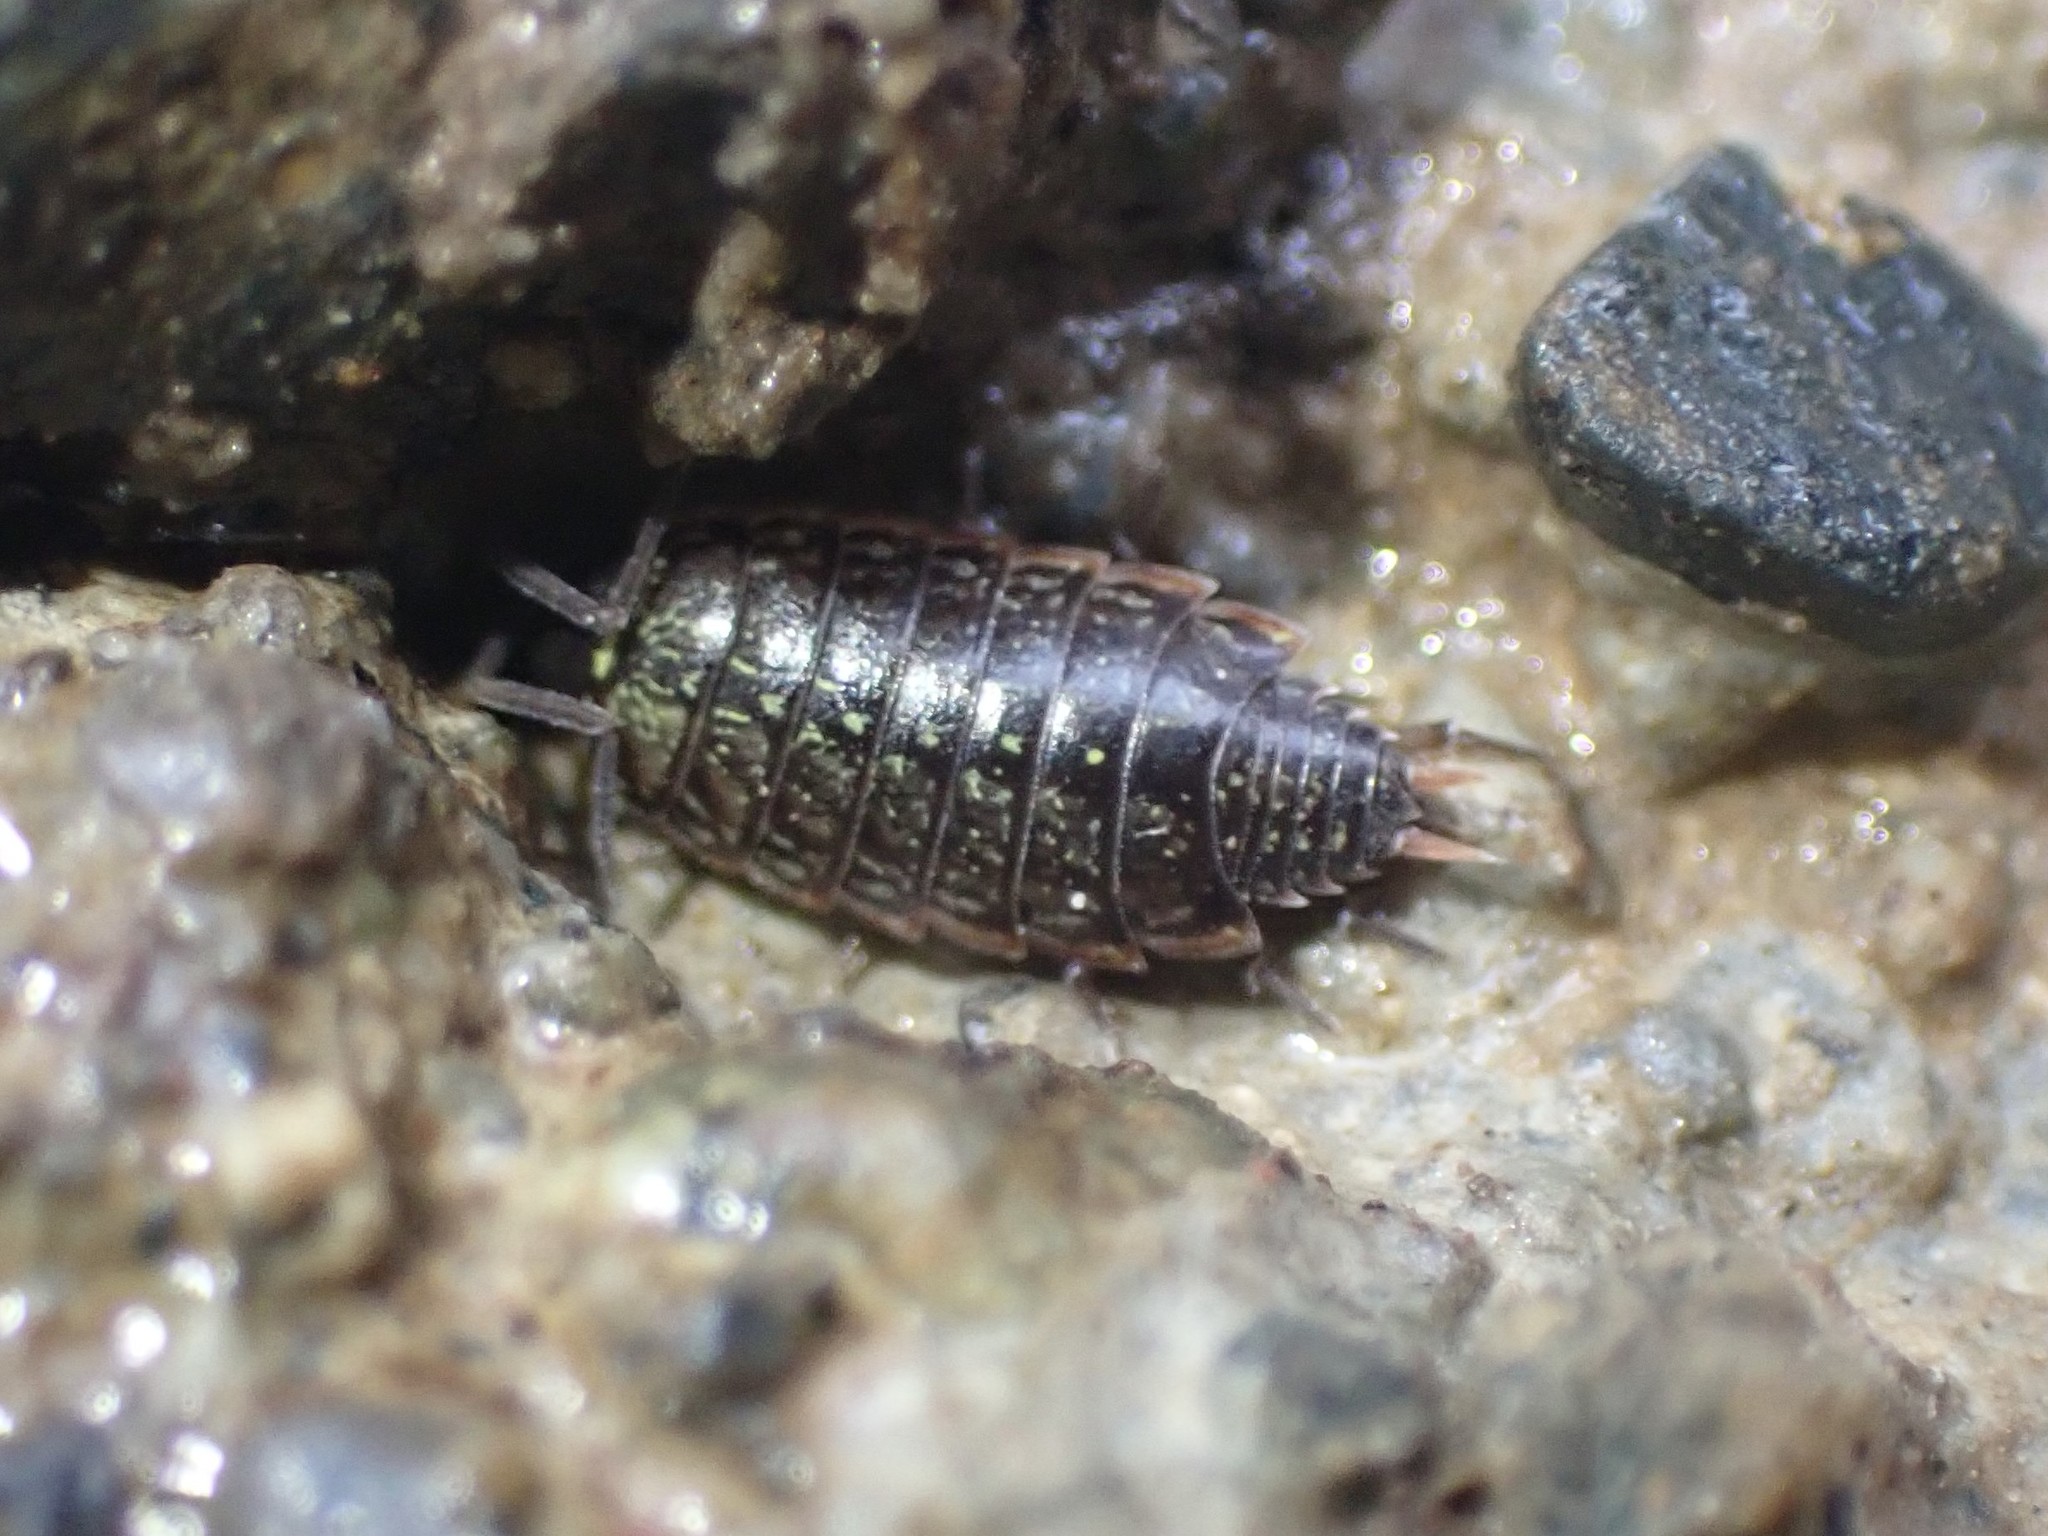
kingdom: Animalia
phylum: Arthropoda
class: Malacostraca
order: Isopoda
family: Philosciidae
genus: Philoscia
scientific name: Philoscia muscorum
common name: Common striped woodlouse
